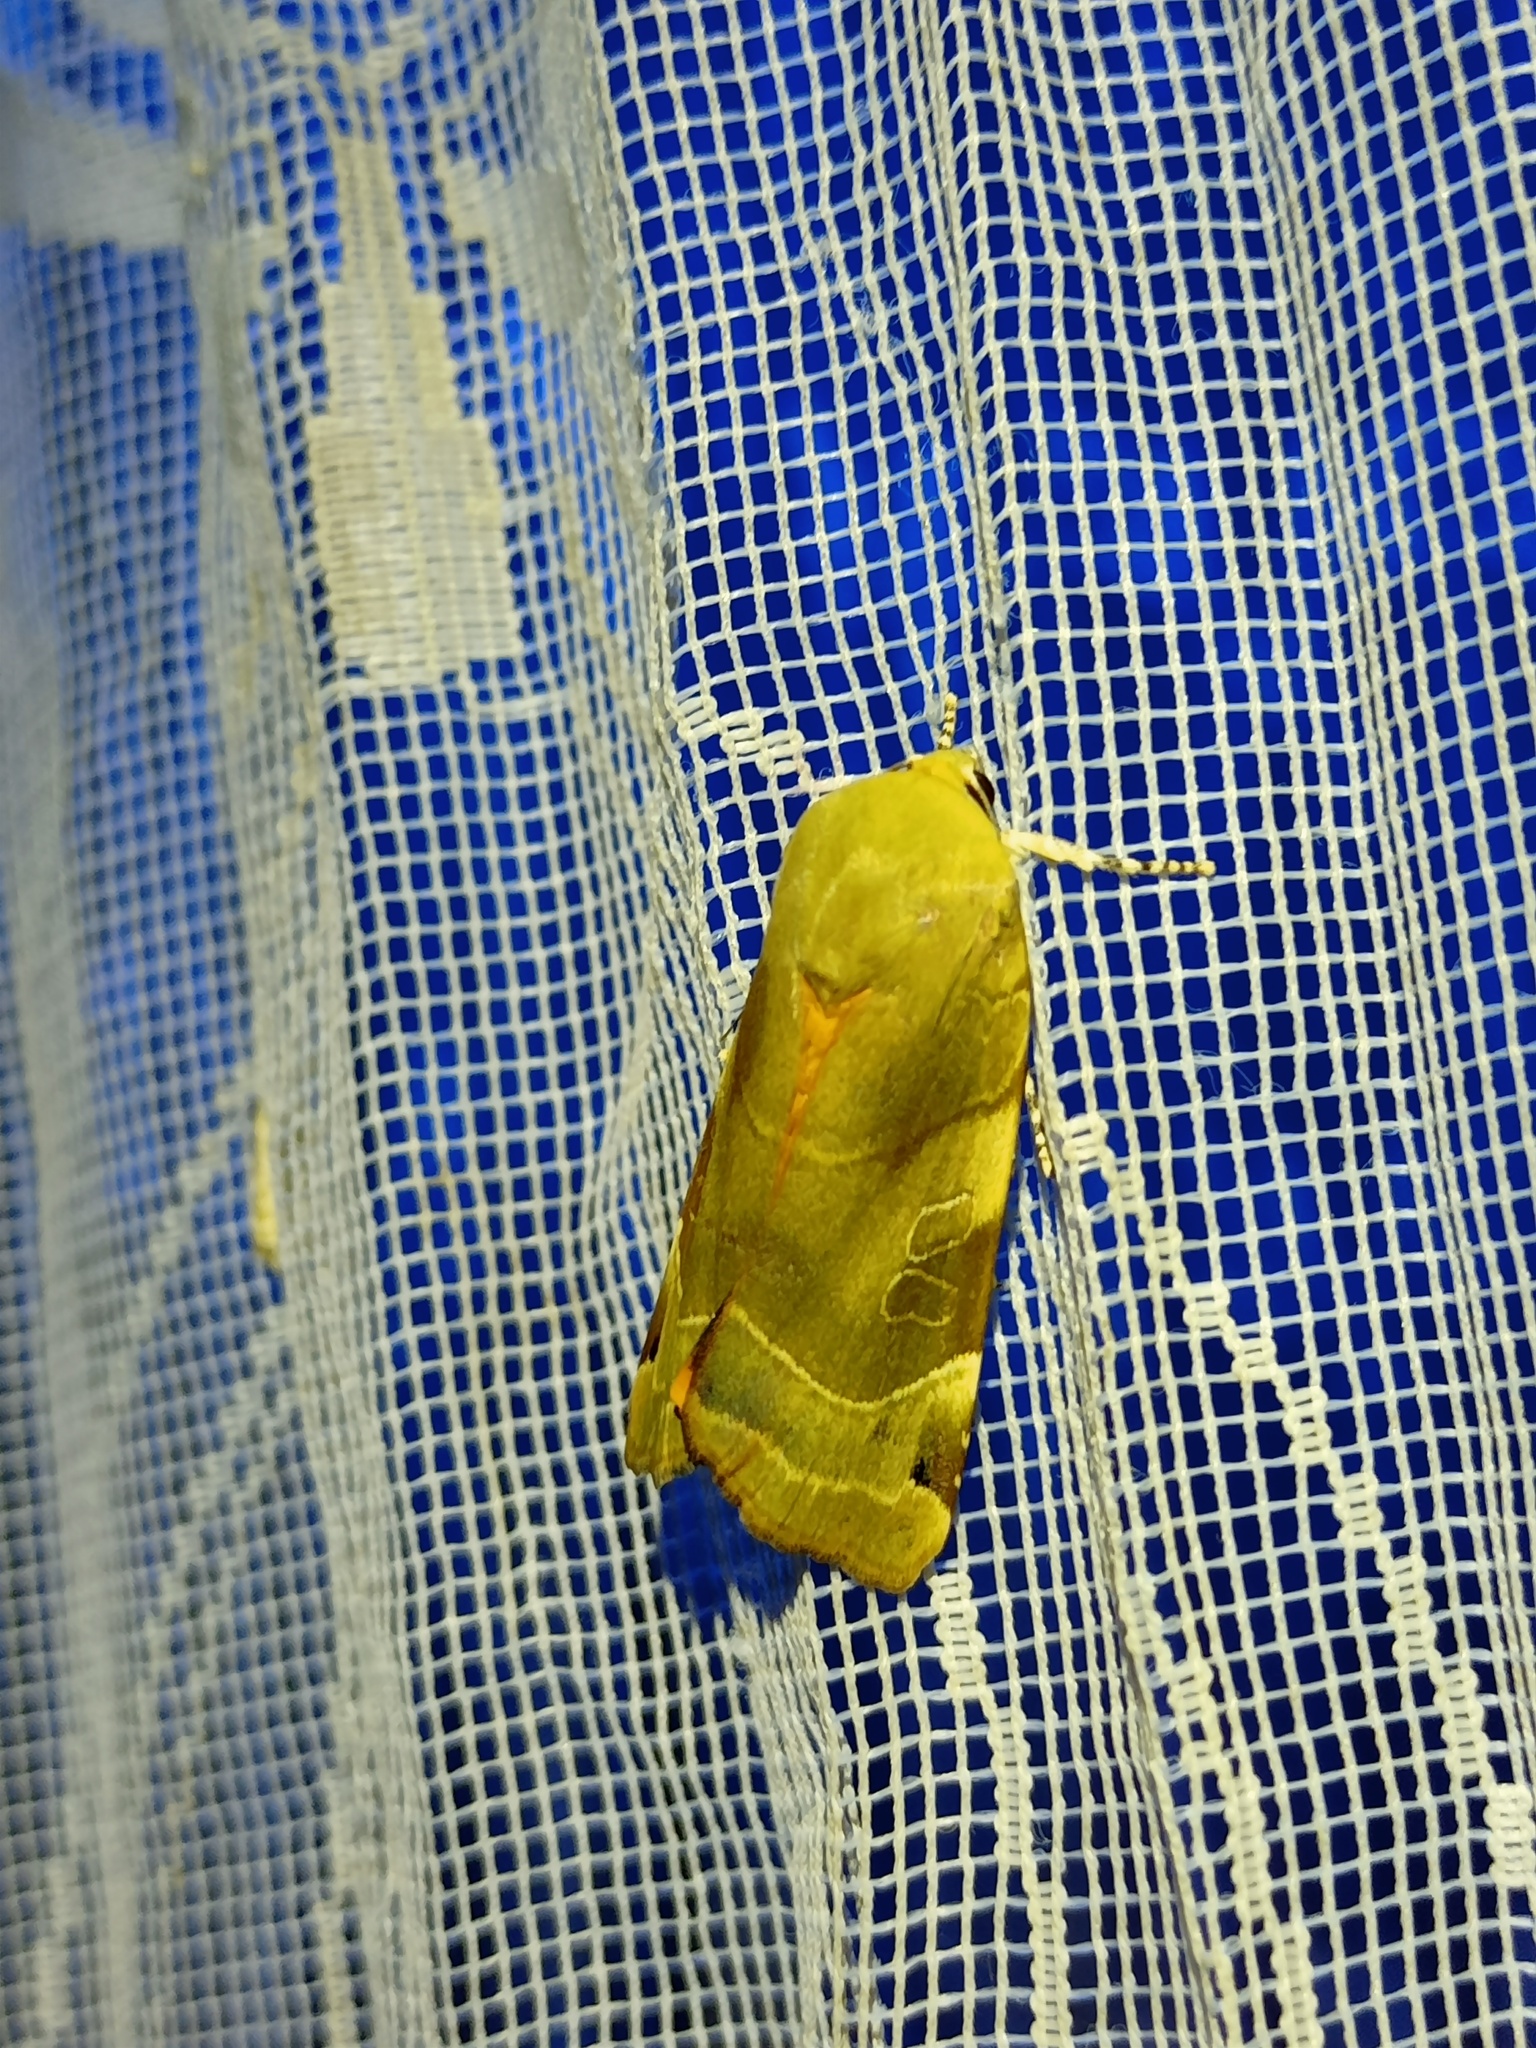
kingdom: Animalia
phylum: Arthropoda
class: Insecta
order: Lepidoptera
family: Noctuidae
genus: Noctua
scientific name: Noctua fimbriata
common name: Broad-bordered yellow underwing
